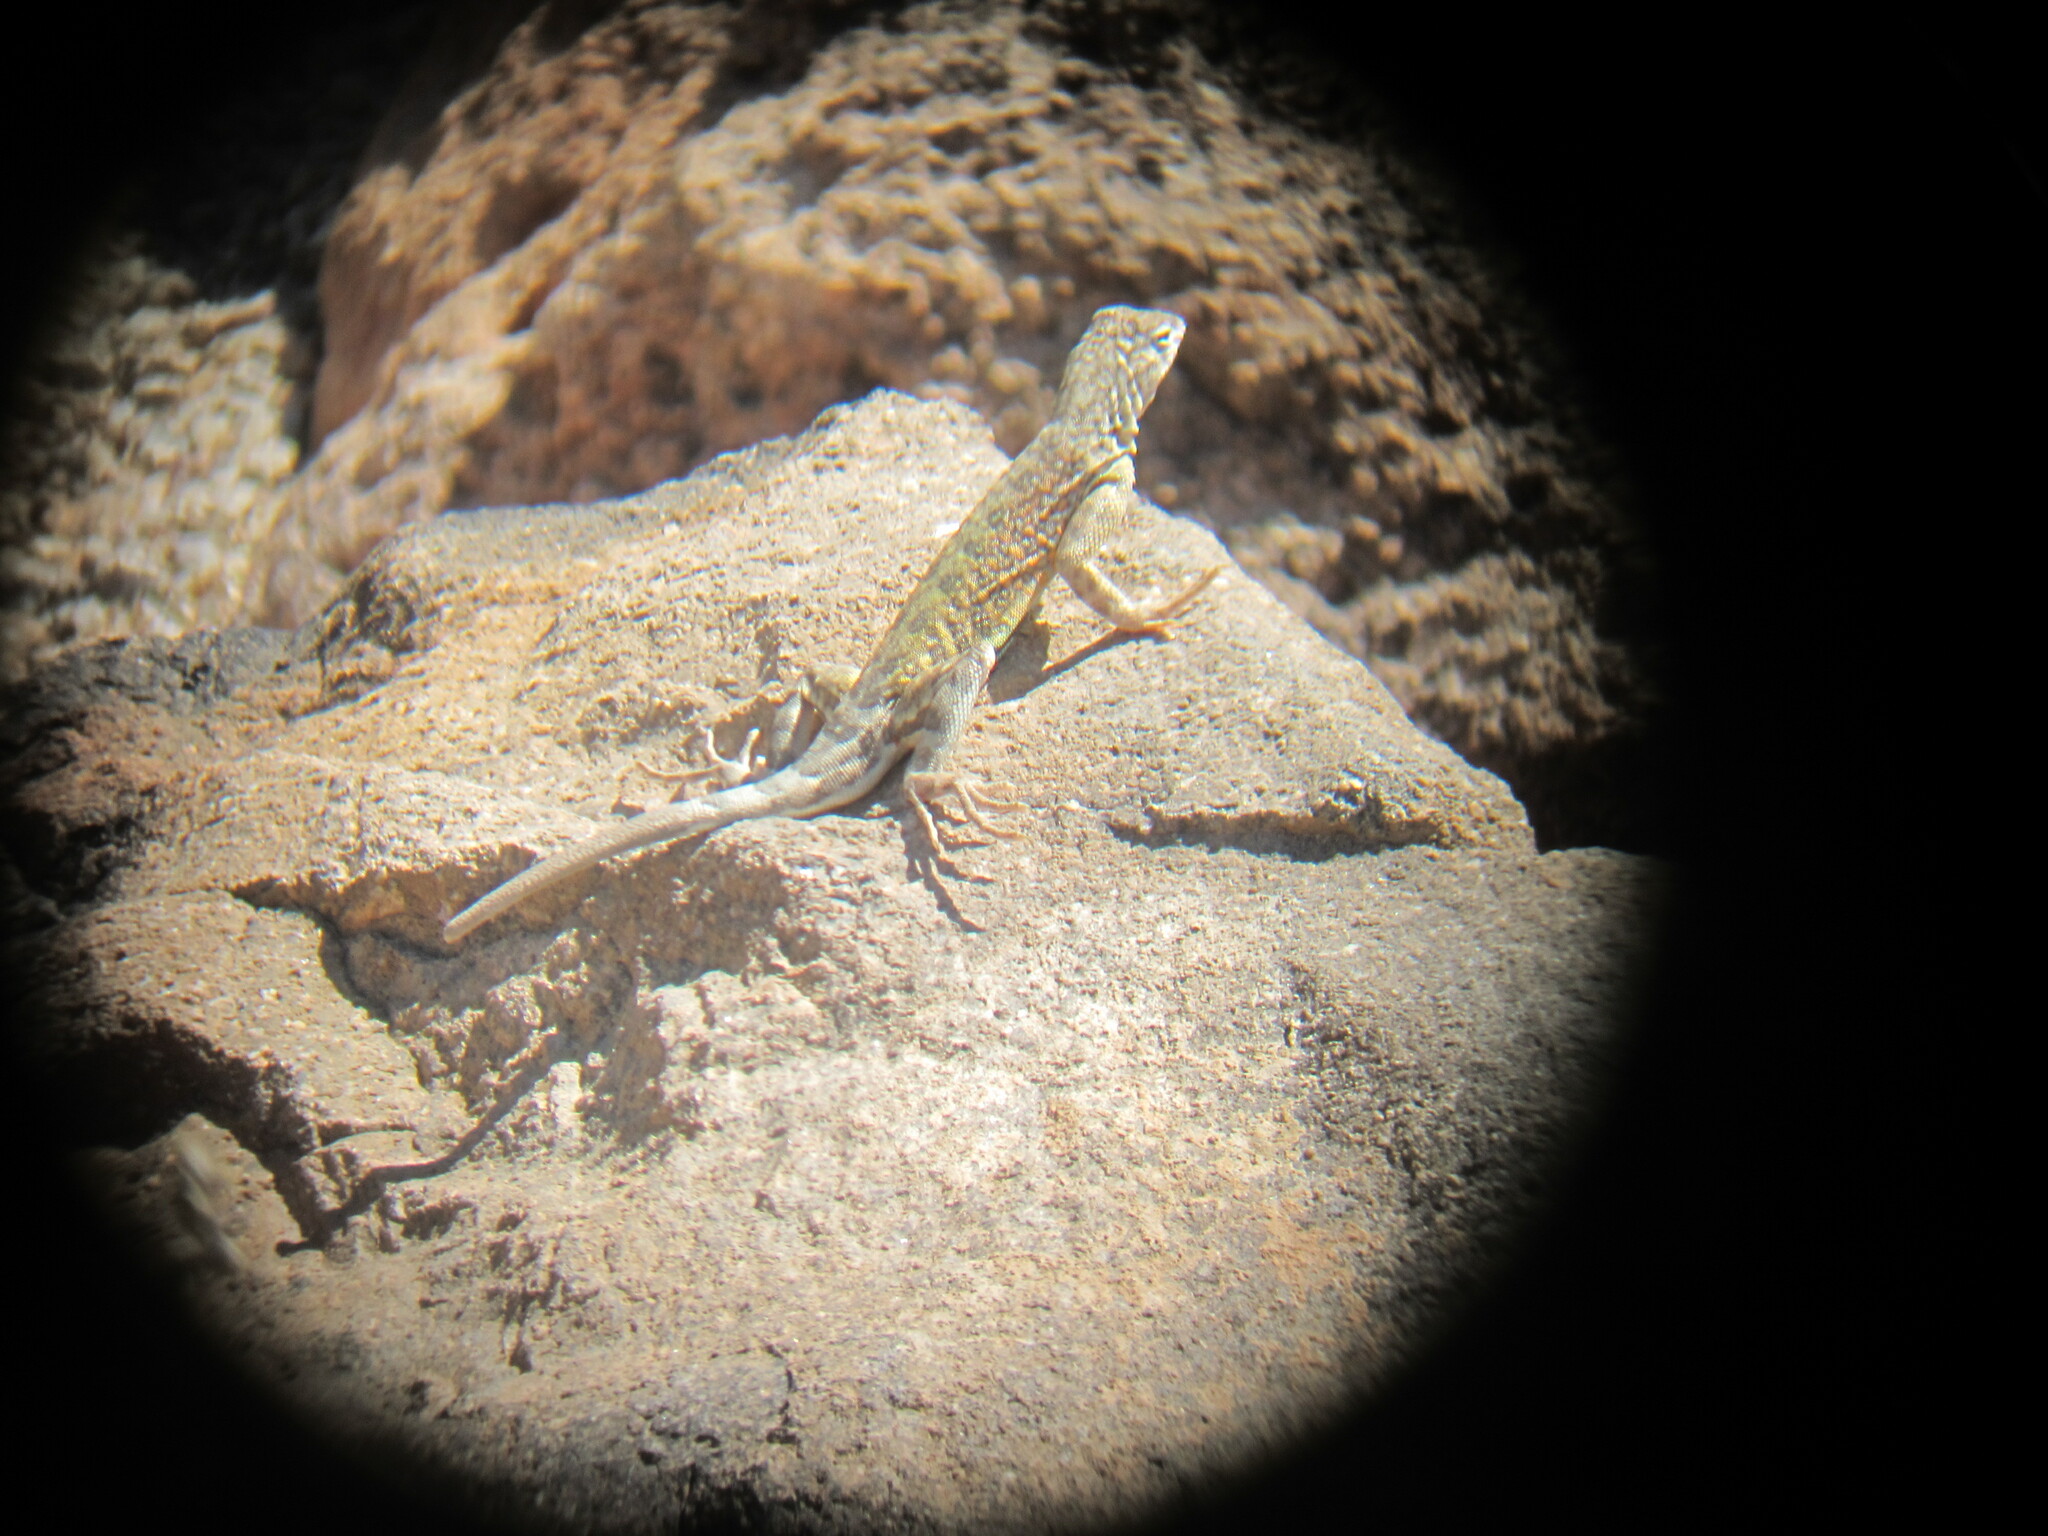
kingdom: Animalia
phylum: Chordata
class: Squamata
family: Phrynosomatidae
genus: Cophosaurus
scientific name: Cophosaurus texanus
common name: Greater earless lizard
